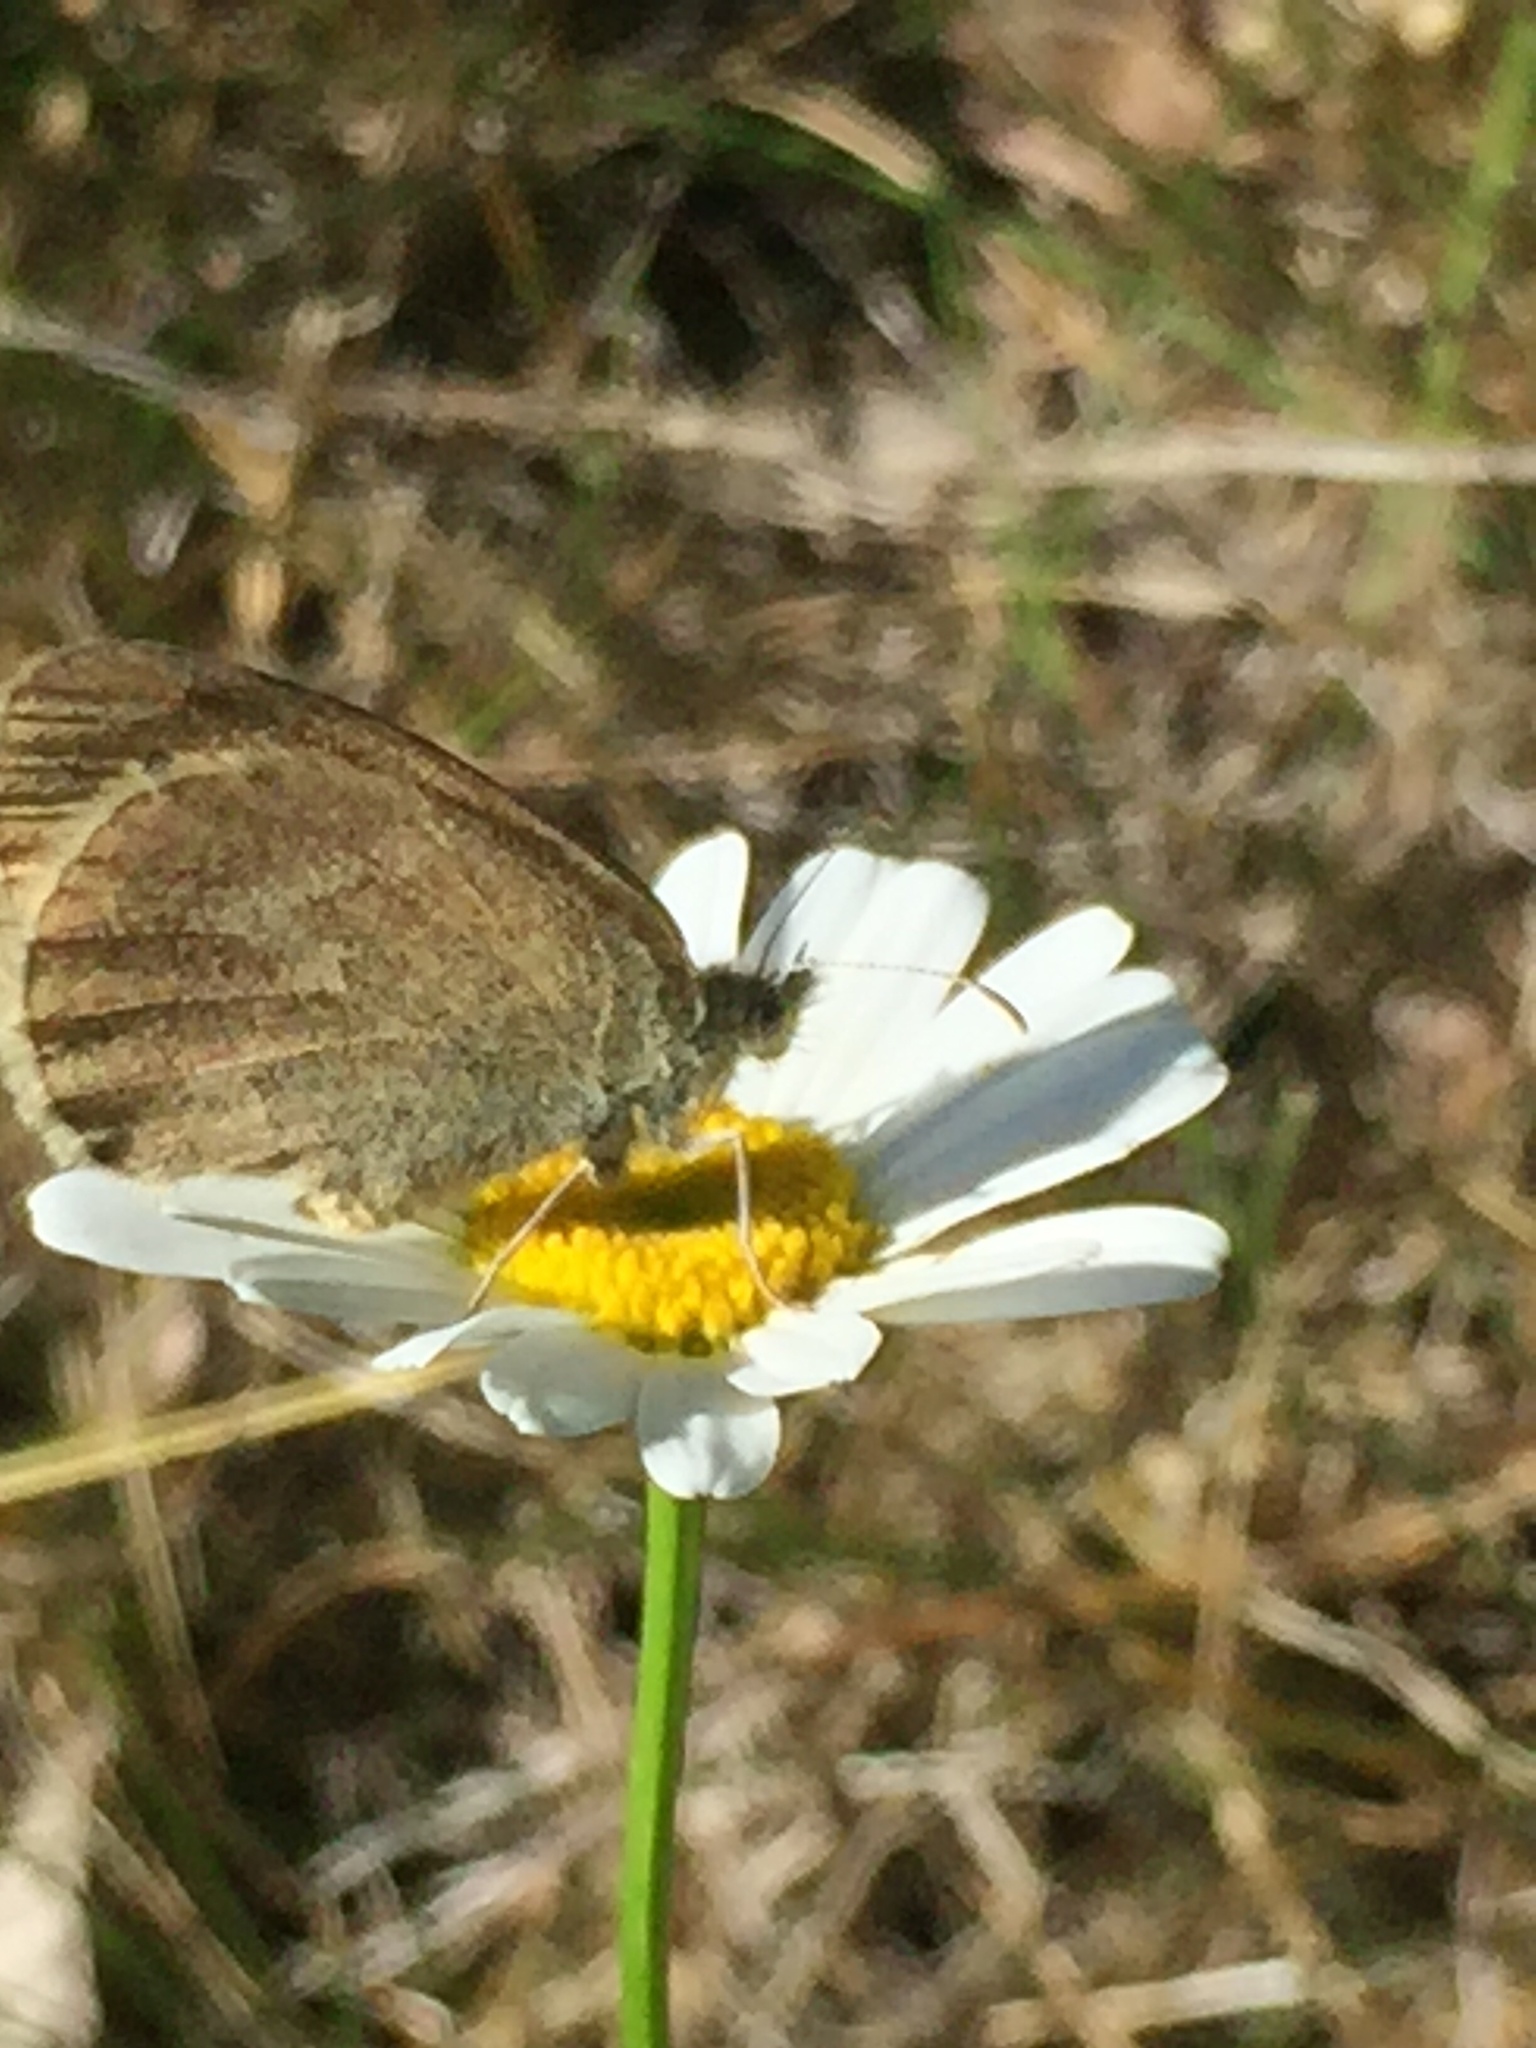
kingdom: Animalia
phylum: Arthropoda
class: Insecta
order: Lepidoptera
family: Nymphalidae
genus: Coenonympha
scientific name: Coenonympha california
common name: Common ringlet
